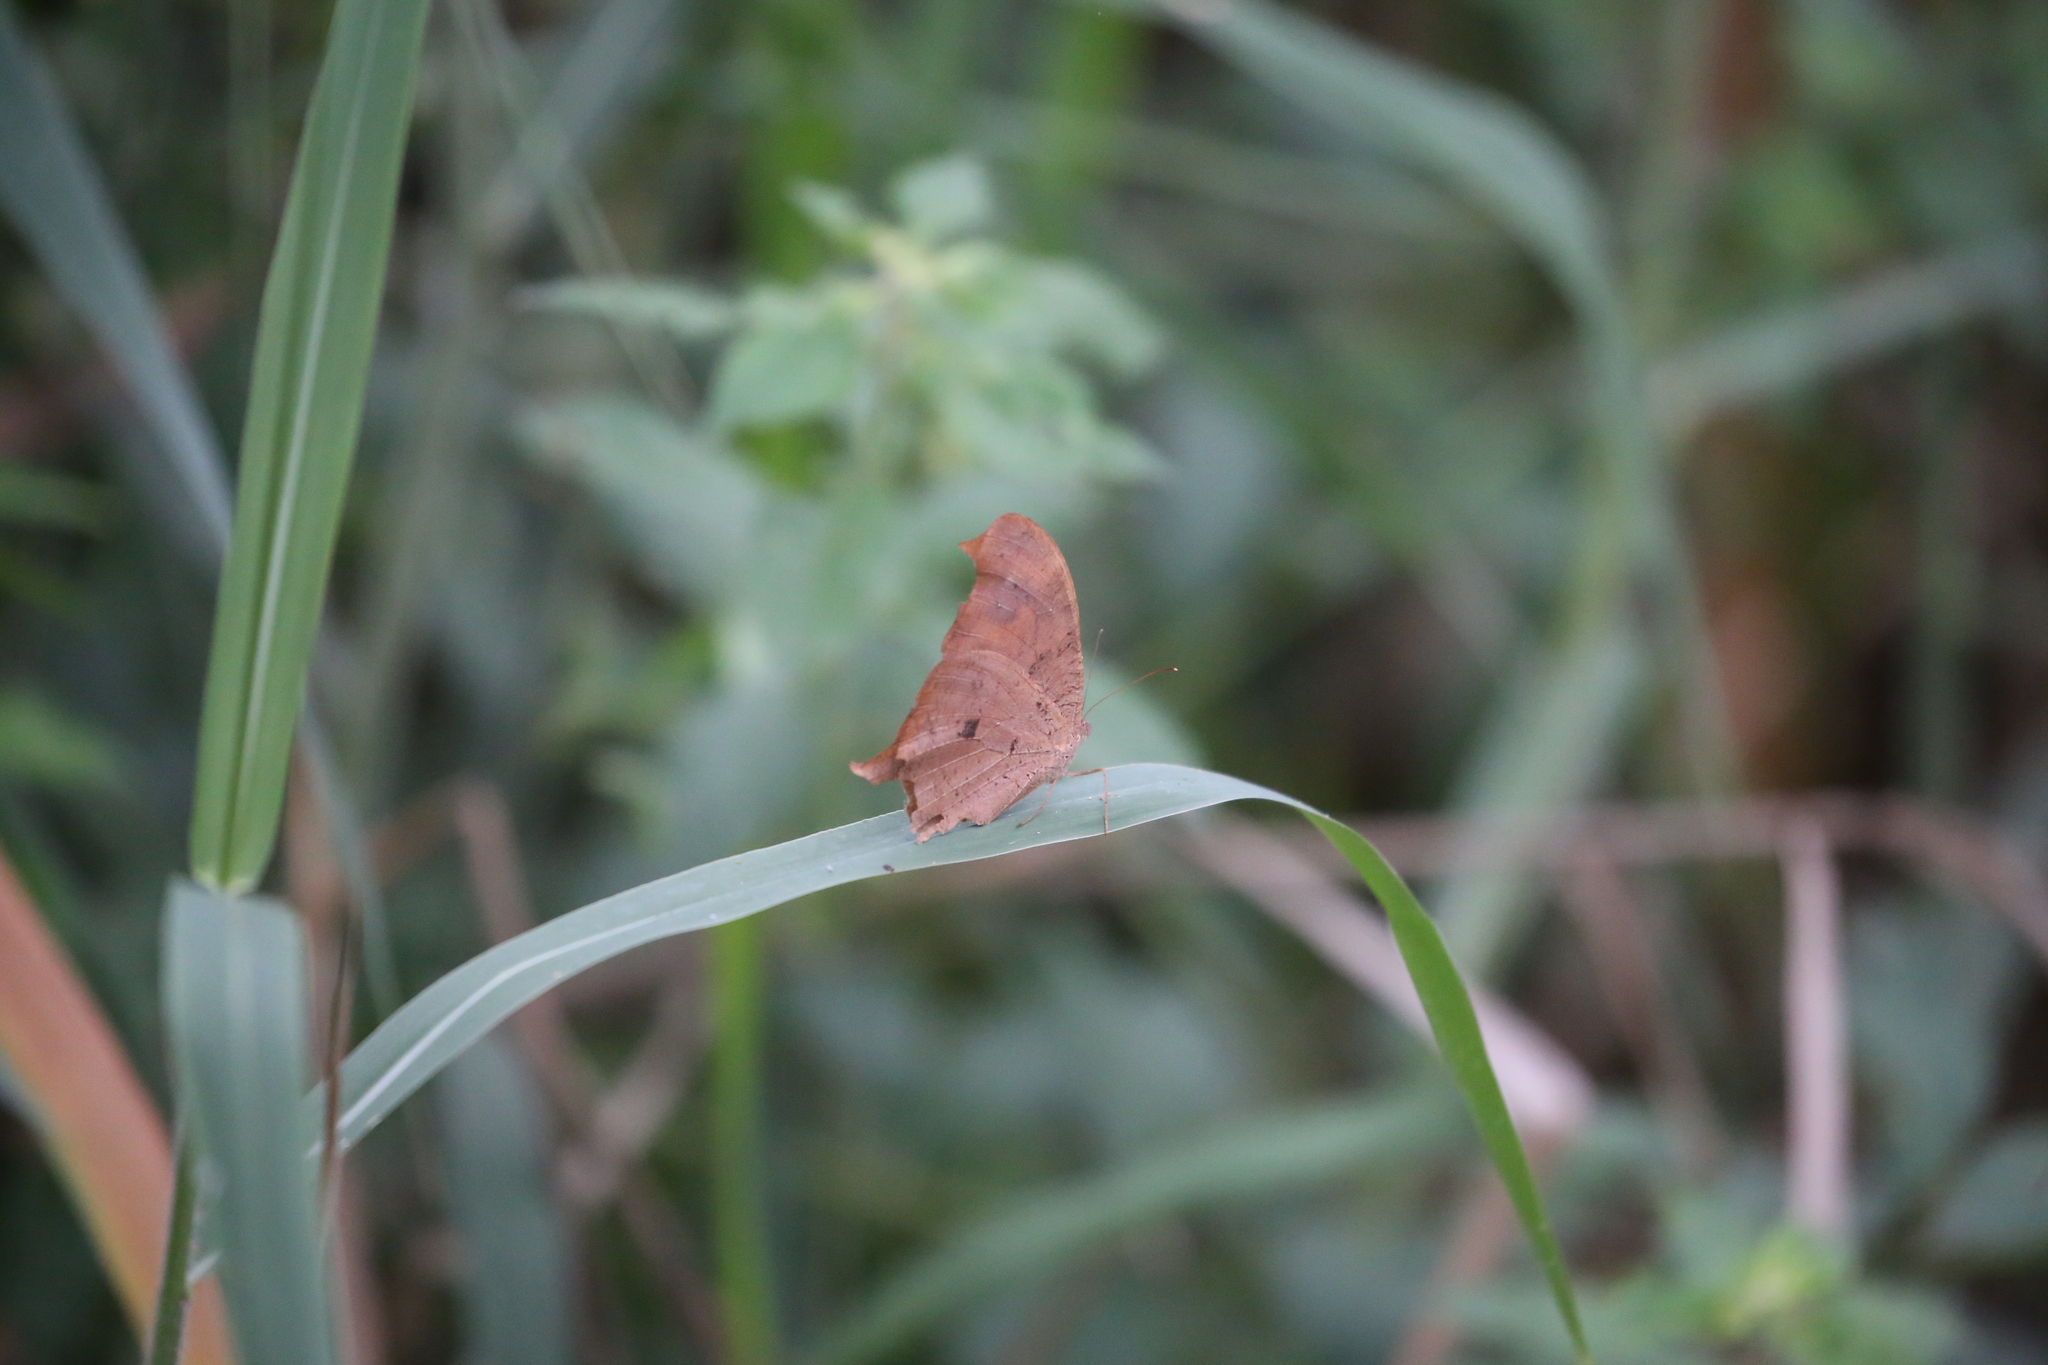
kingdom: Animalia
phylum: Arthropoda
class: Insecta
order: Lepidoptera
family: Nymphalidae
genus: Melanitis
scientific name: Melanitis leda
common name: Twilight brown
